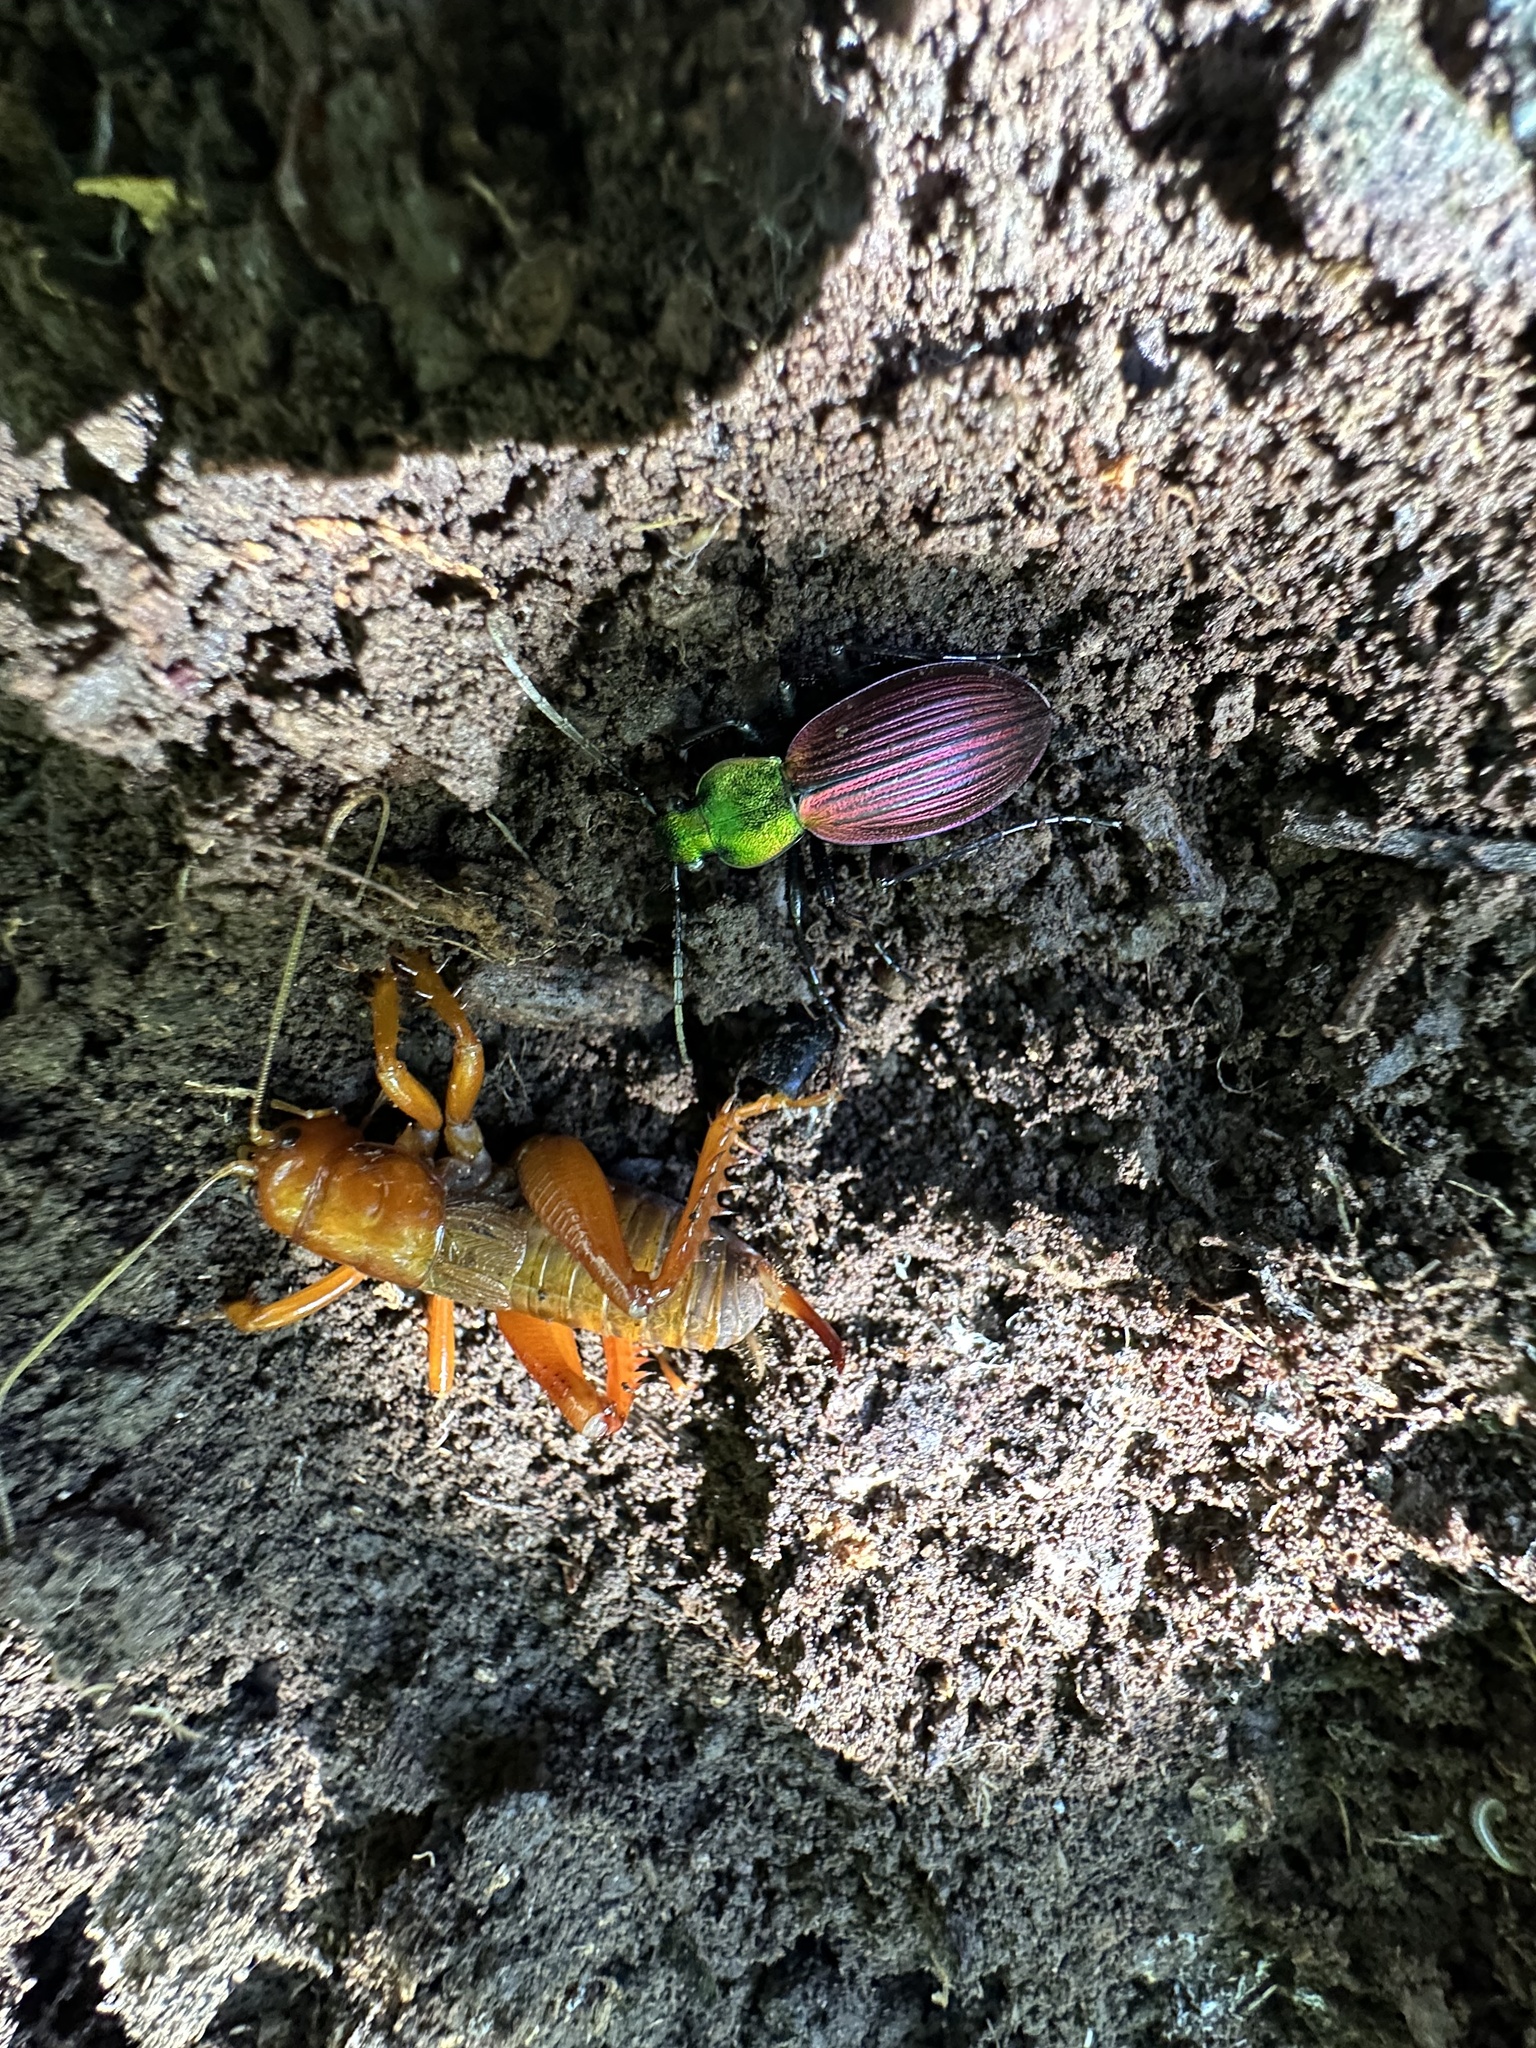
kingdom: Animalia
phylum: Arthropoda
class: Insecta
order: Orthoptera
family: Anostostomatidae
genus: Cratomelus
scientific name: Cratomelus armatus
